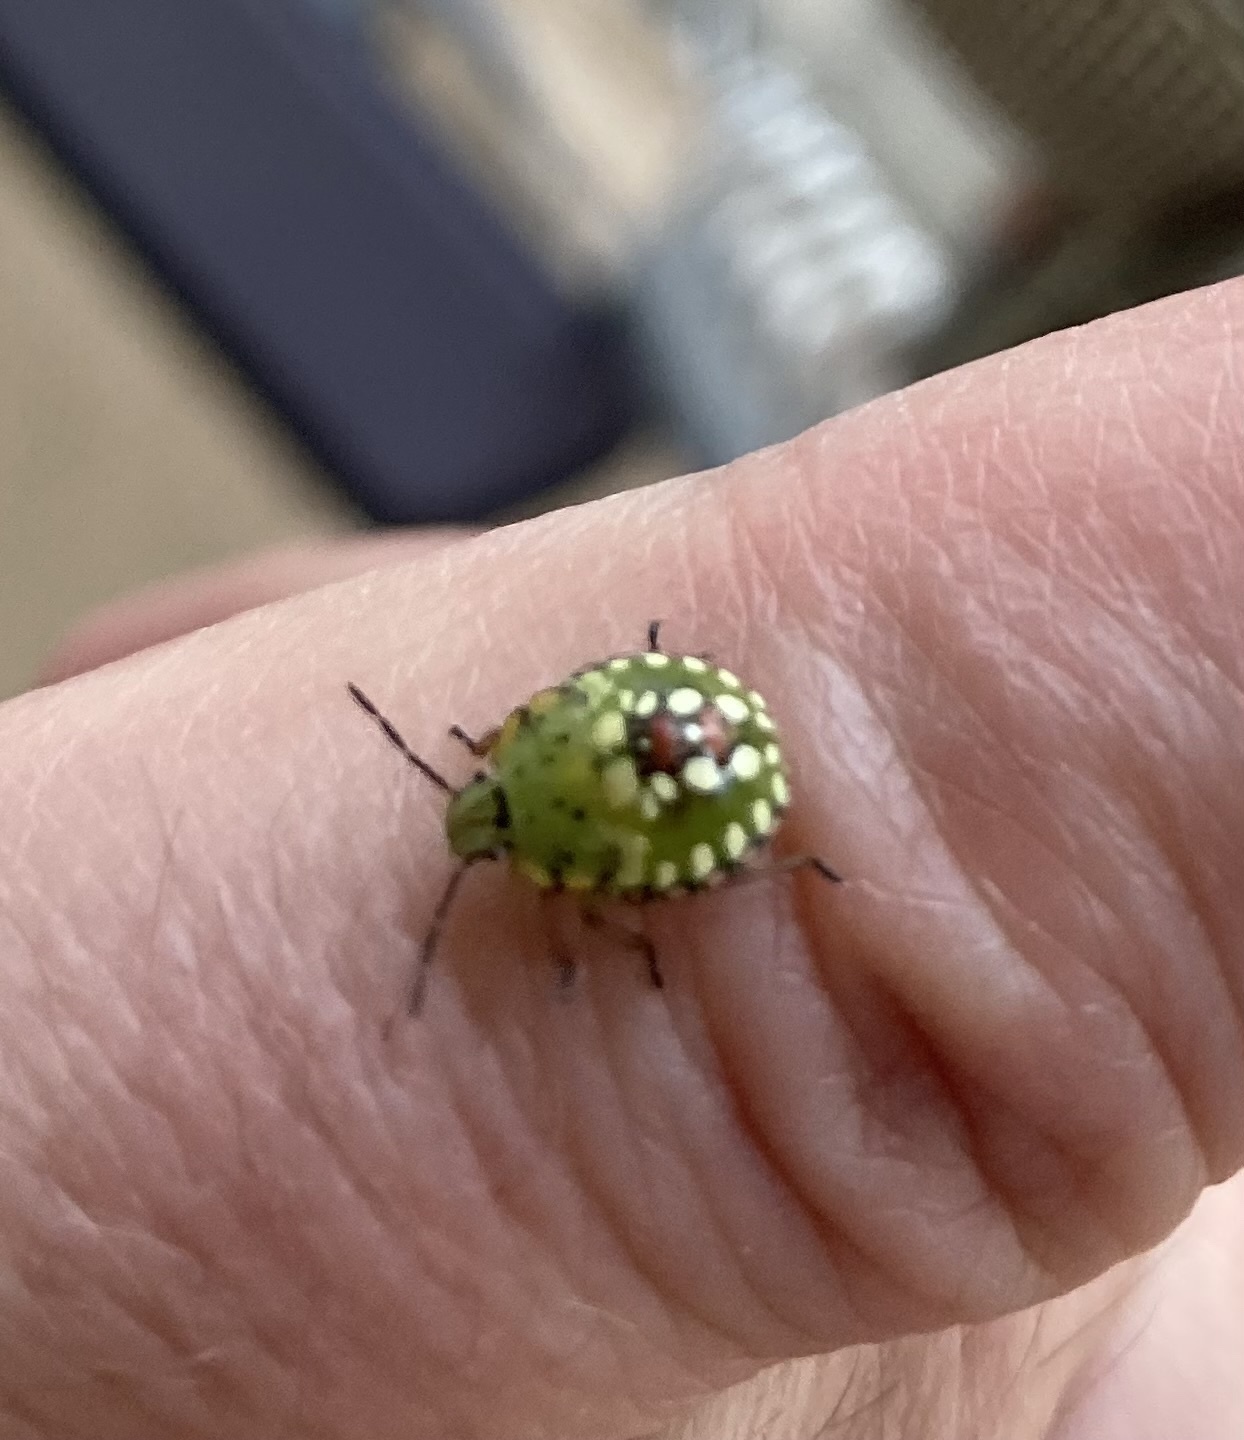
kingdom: Animalia
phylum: Arthropoda
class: Insecta
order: Hemiptera
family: Pentatomidae
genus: Nezara
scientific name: Nezara viridula
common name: Southern green stink bug
